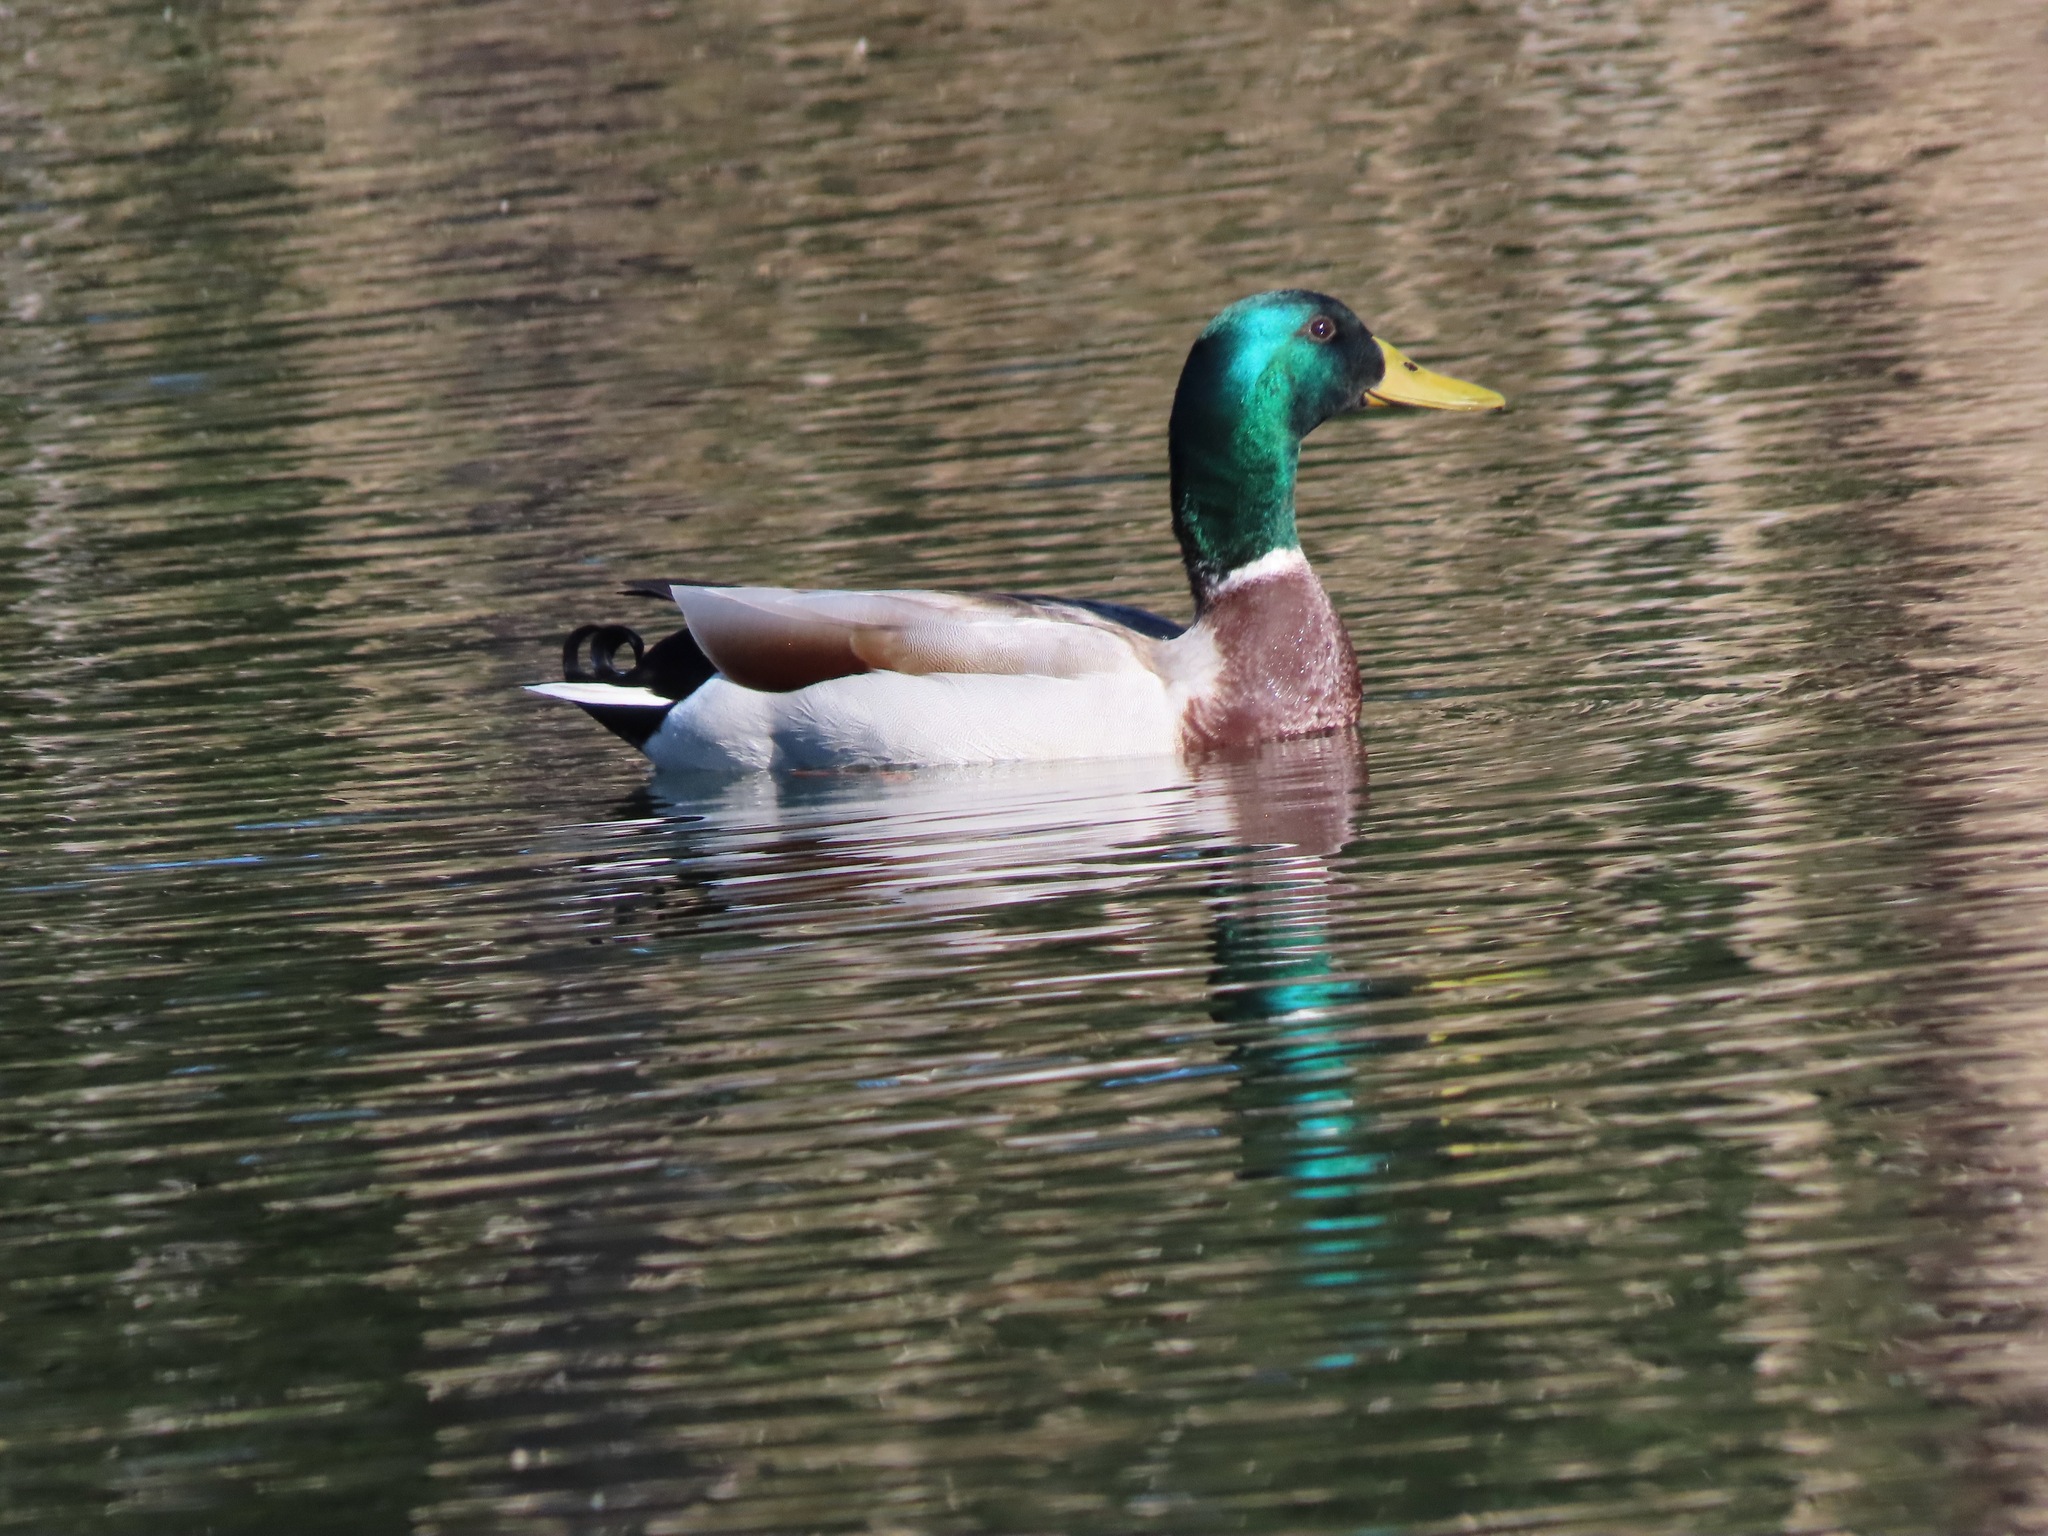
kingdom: Animalia
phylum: Chordata
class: Aves
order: Anseriformes
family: Anatidae
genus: Anas
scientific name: Anas platyrhynchos
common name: Mallard
